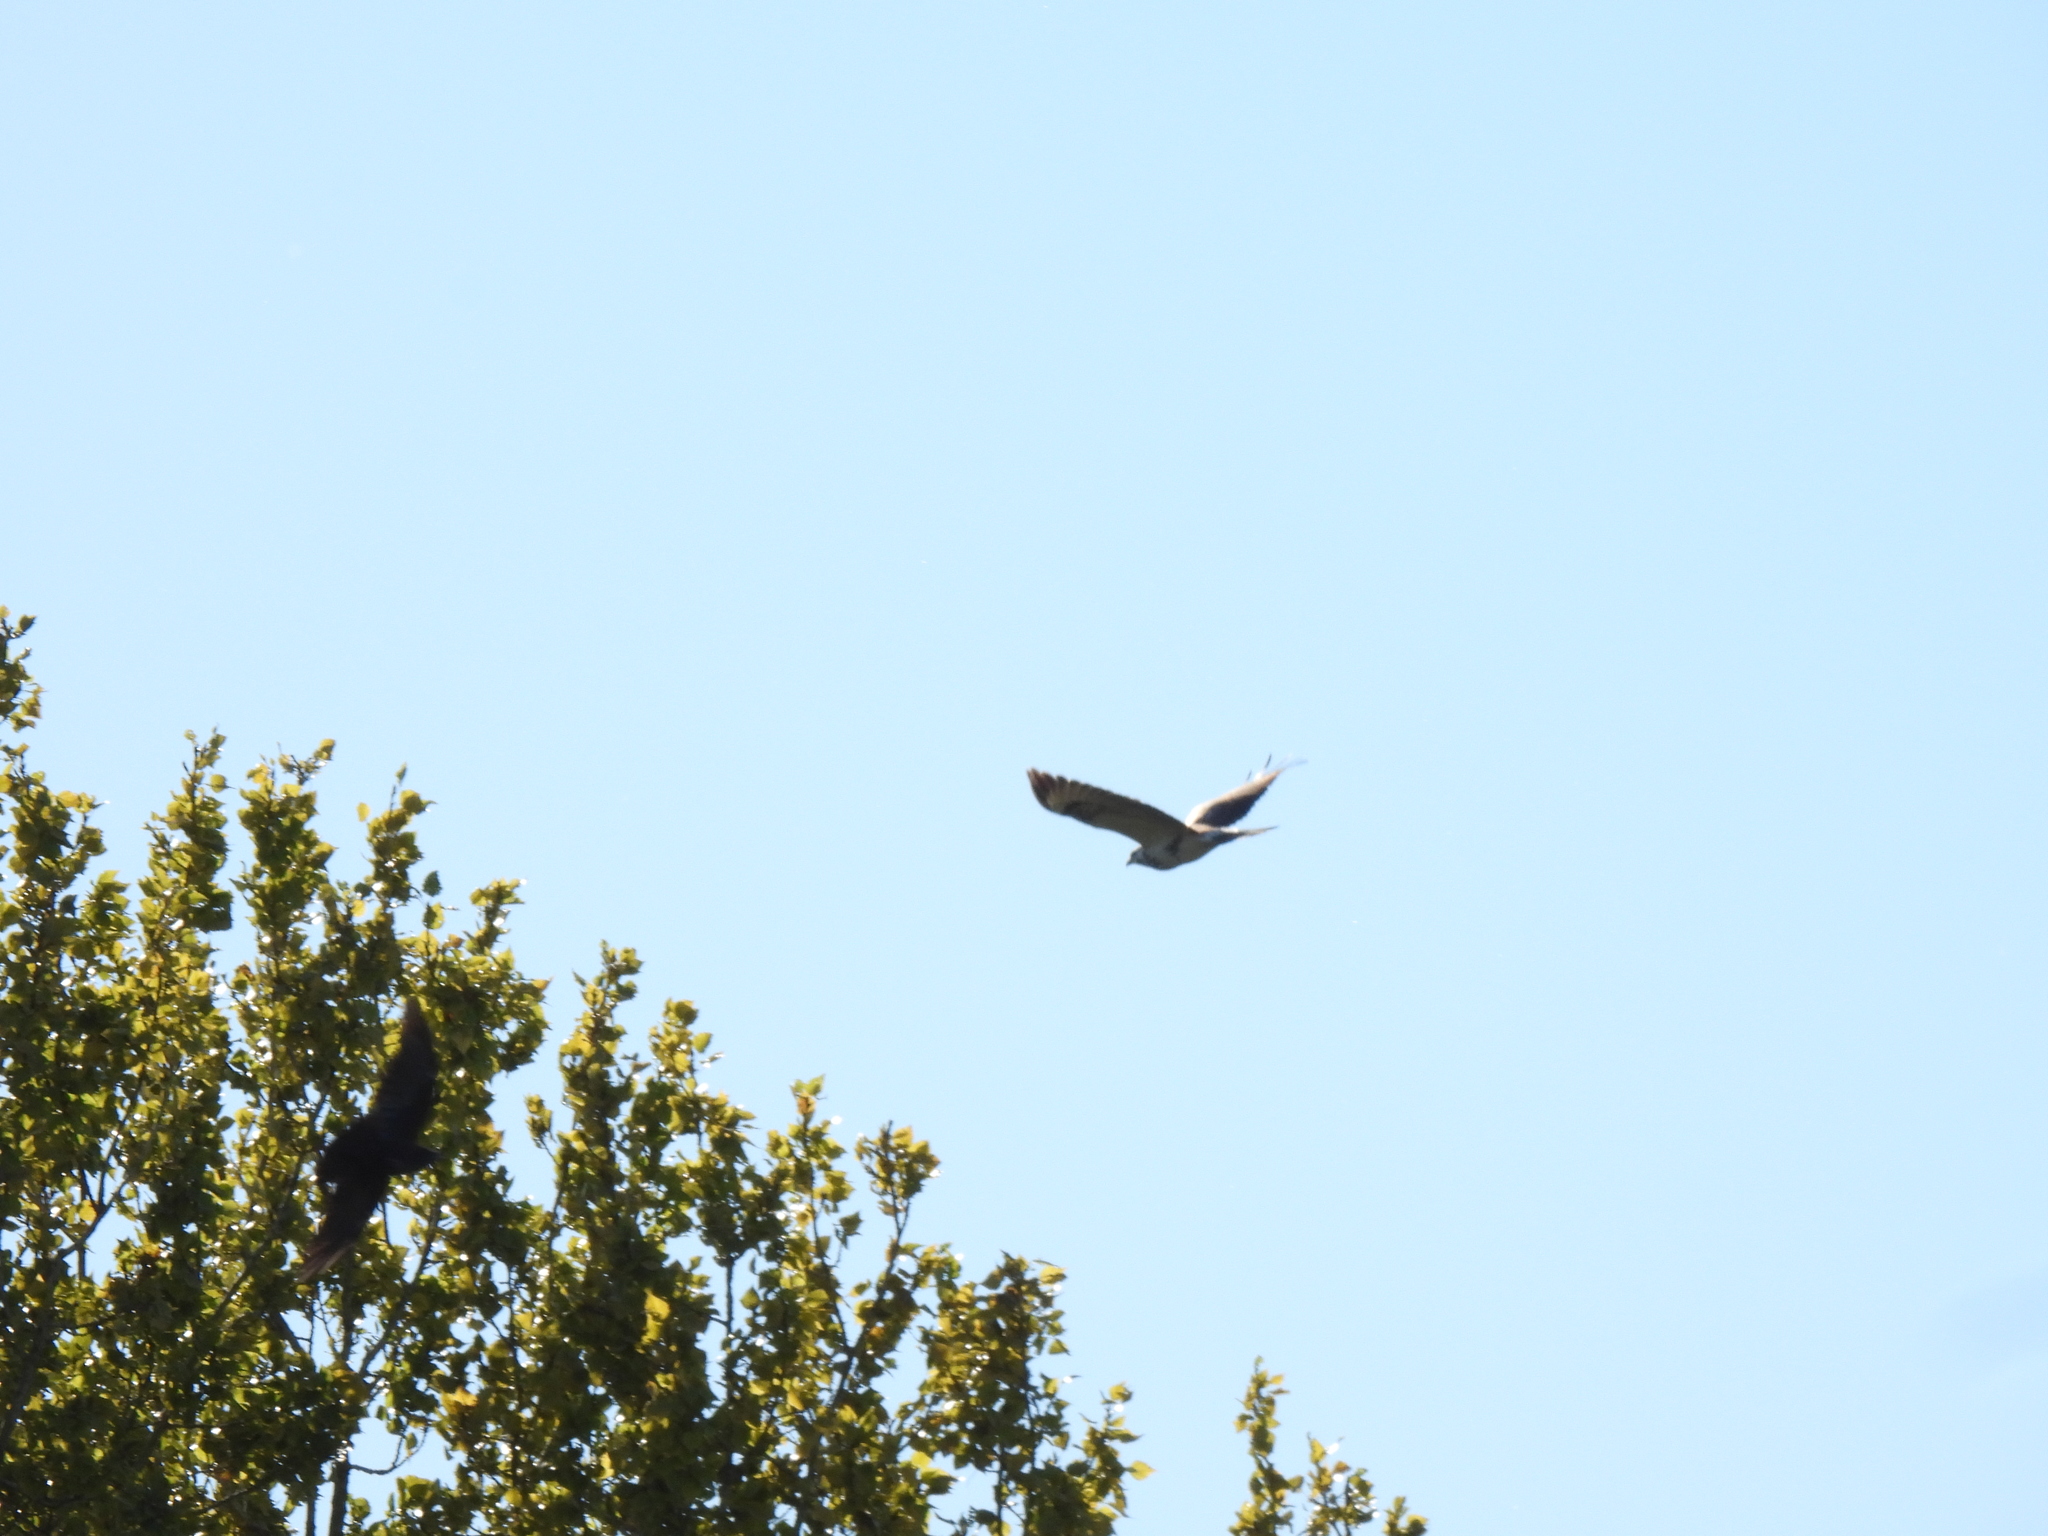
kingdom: Animalia
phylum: Chordata
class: Aves
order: Accipitriformes
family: Accipitridae
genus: Buteo
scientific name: Buteo buteo
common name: Common buzzard
